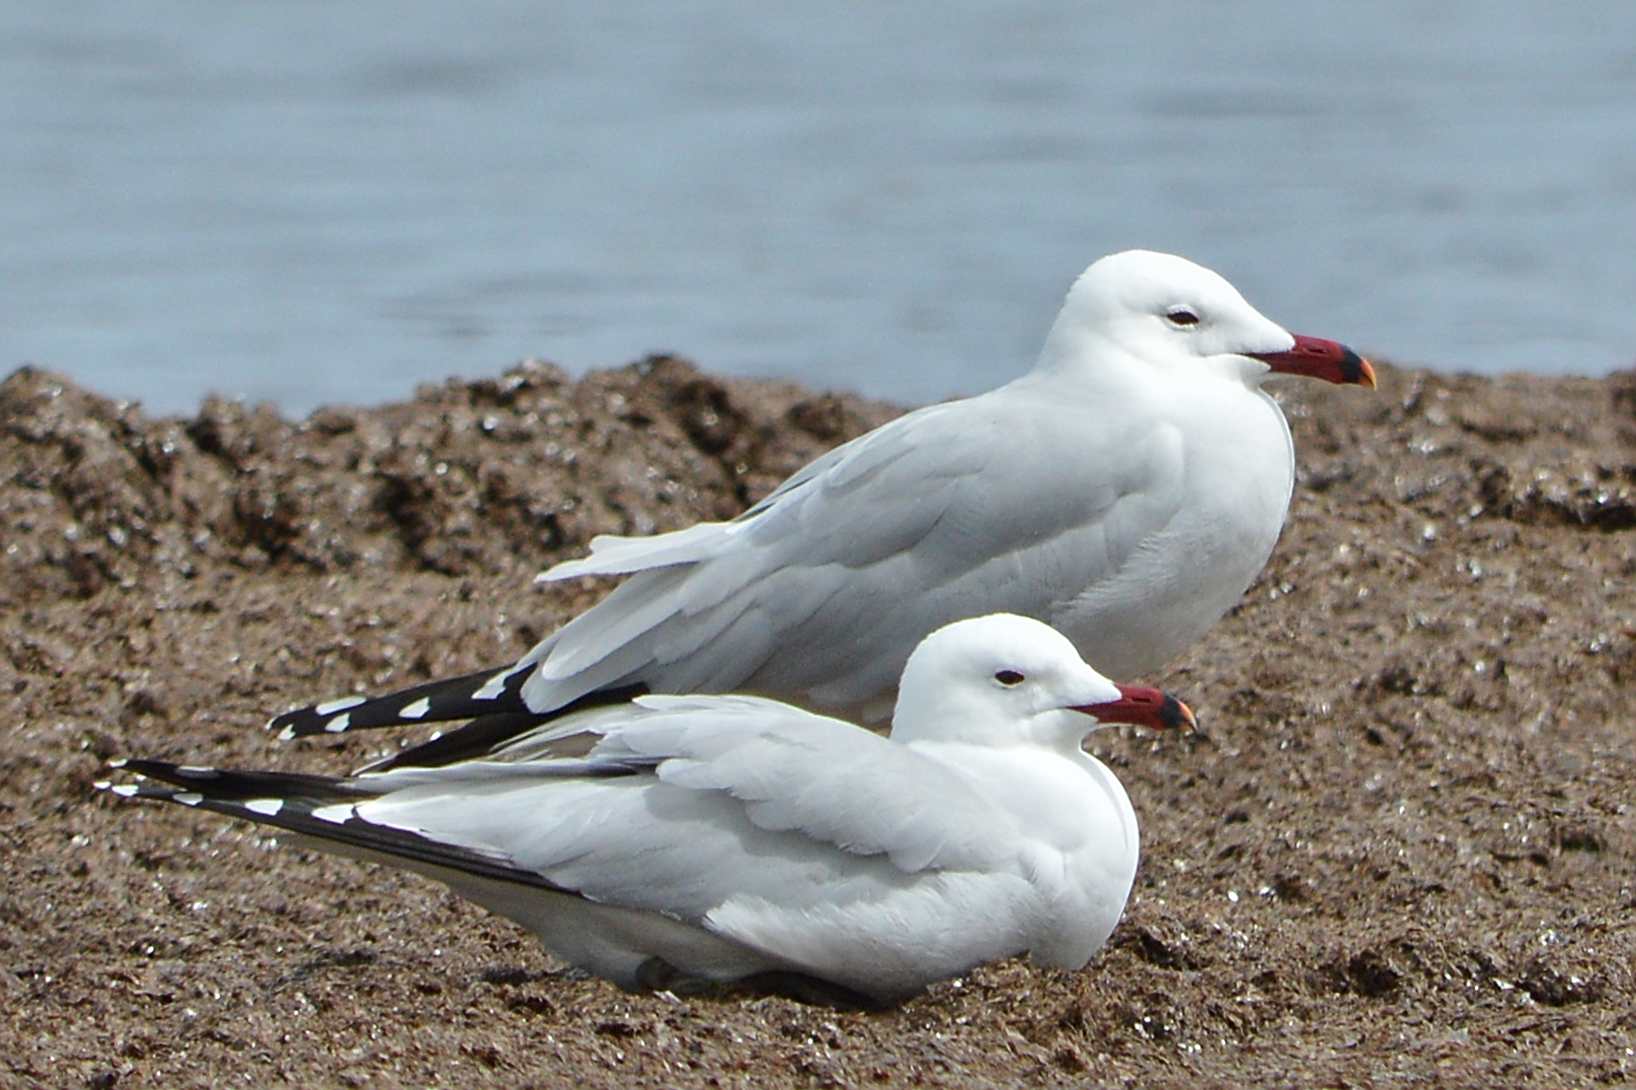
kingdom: Animalia
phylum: Chordata
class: Aves
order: Charadriiformes
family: Laridae
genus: Ichthyaetus
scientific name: Ichthyaetus audouinii
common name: Audouin's gull
